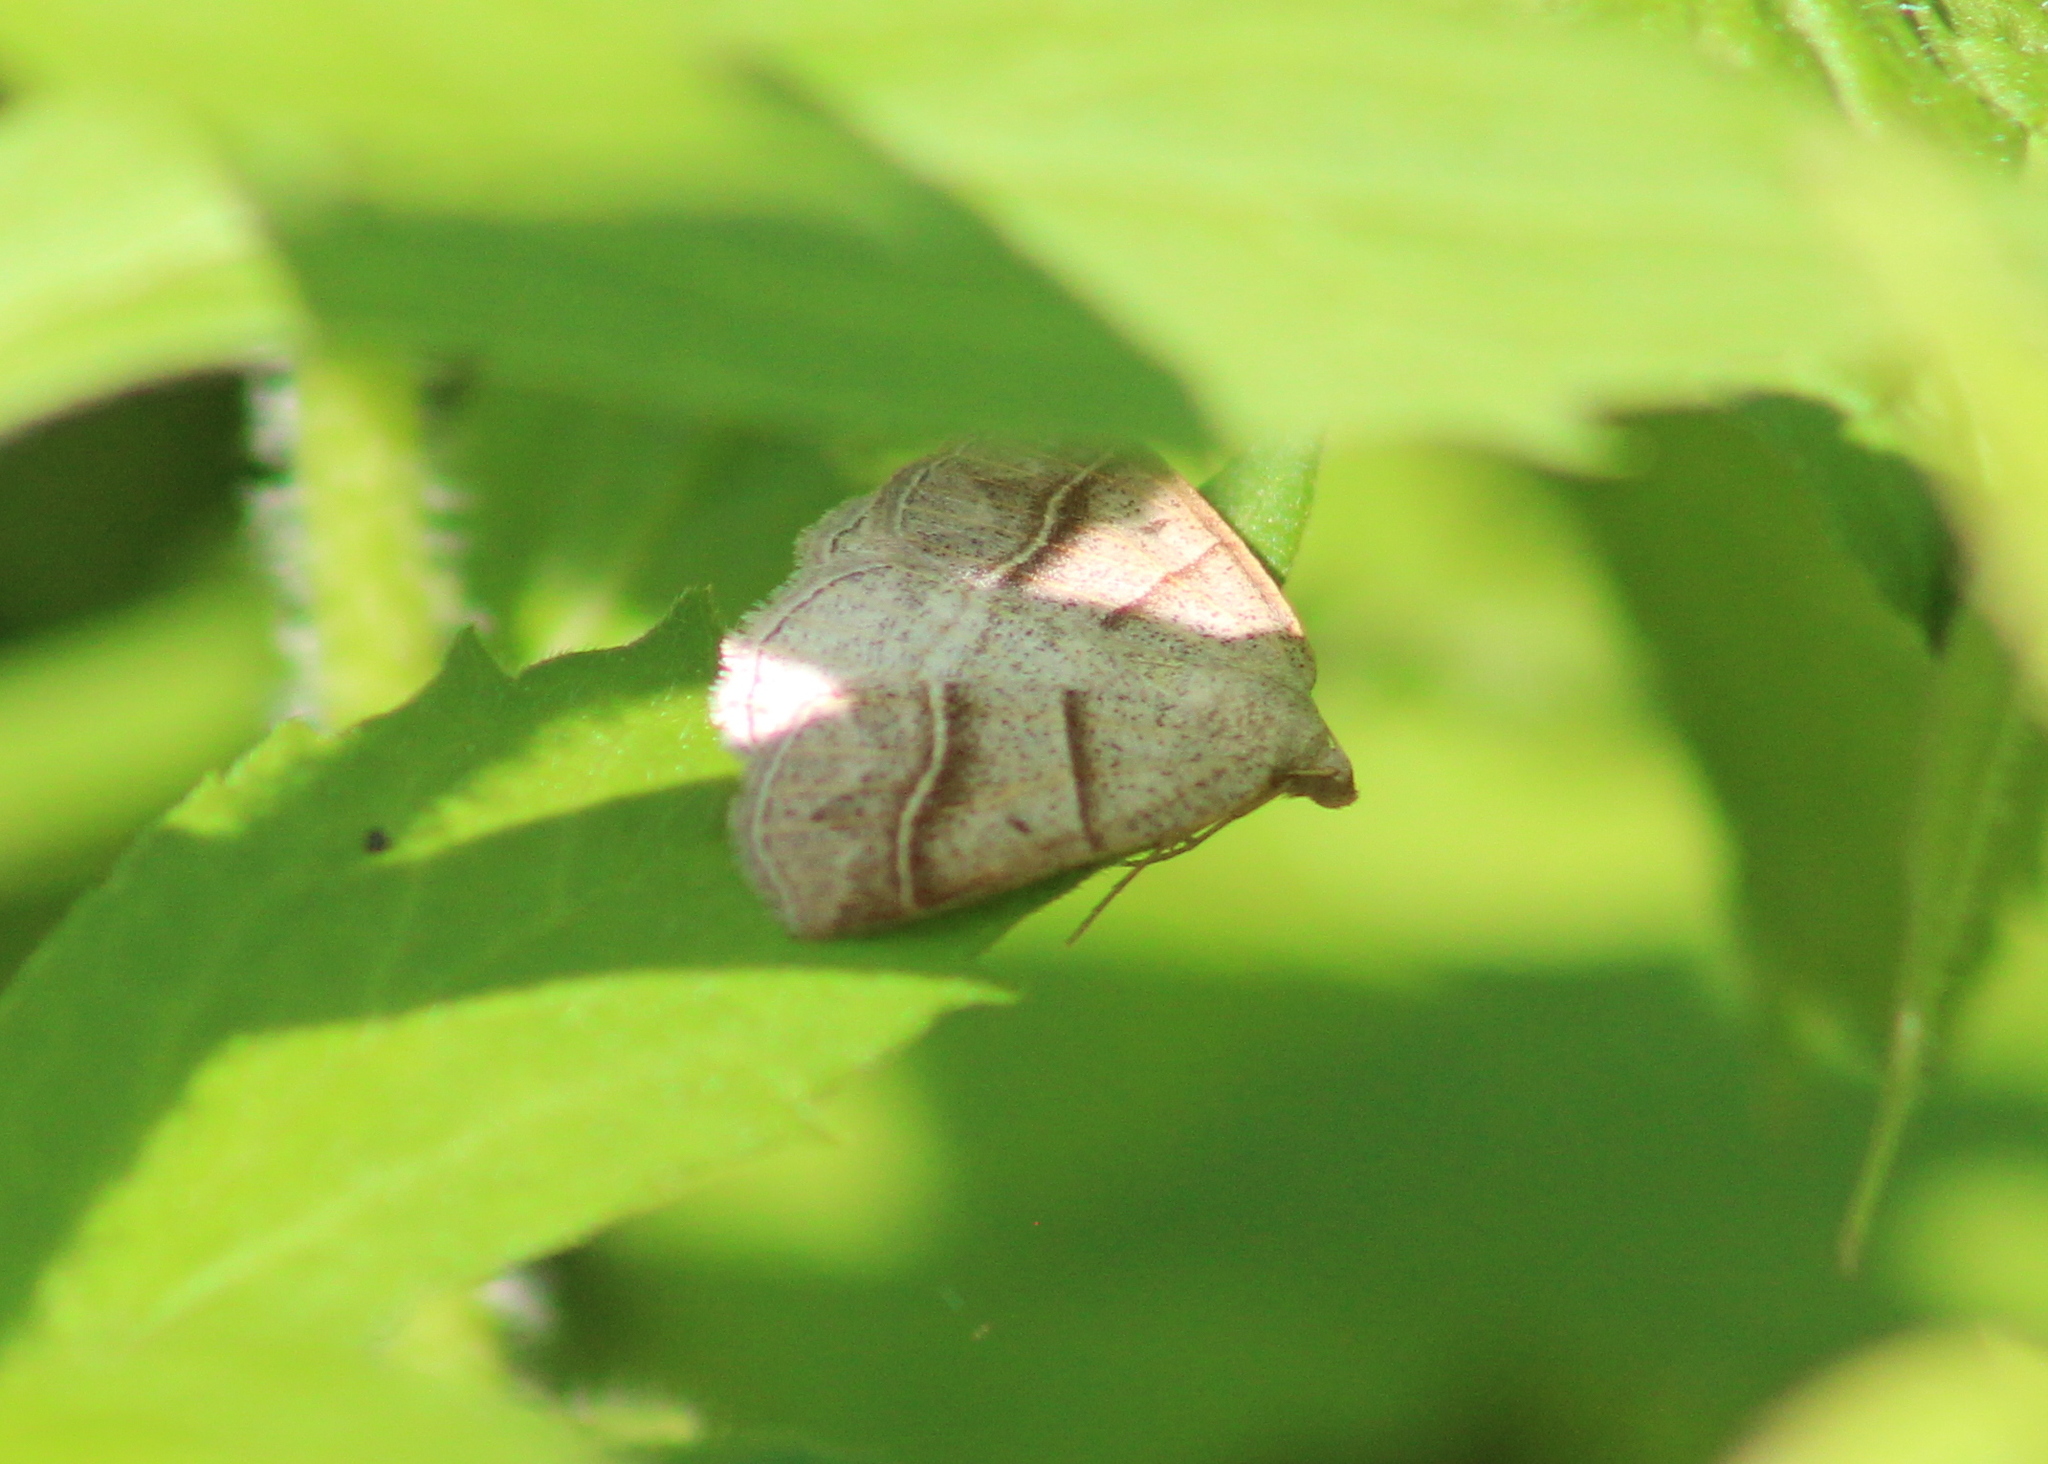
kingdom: Animalia
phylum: Arthropoda
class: Insecta
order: Lepidoptera
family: Pterophoridae
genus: Pterophorus
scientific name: Pterophorus Petrophora subaequaria
